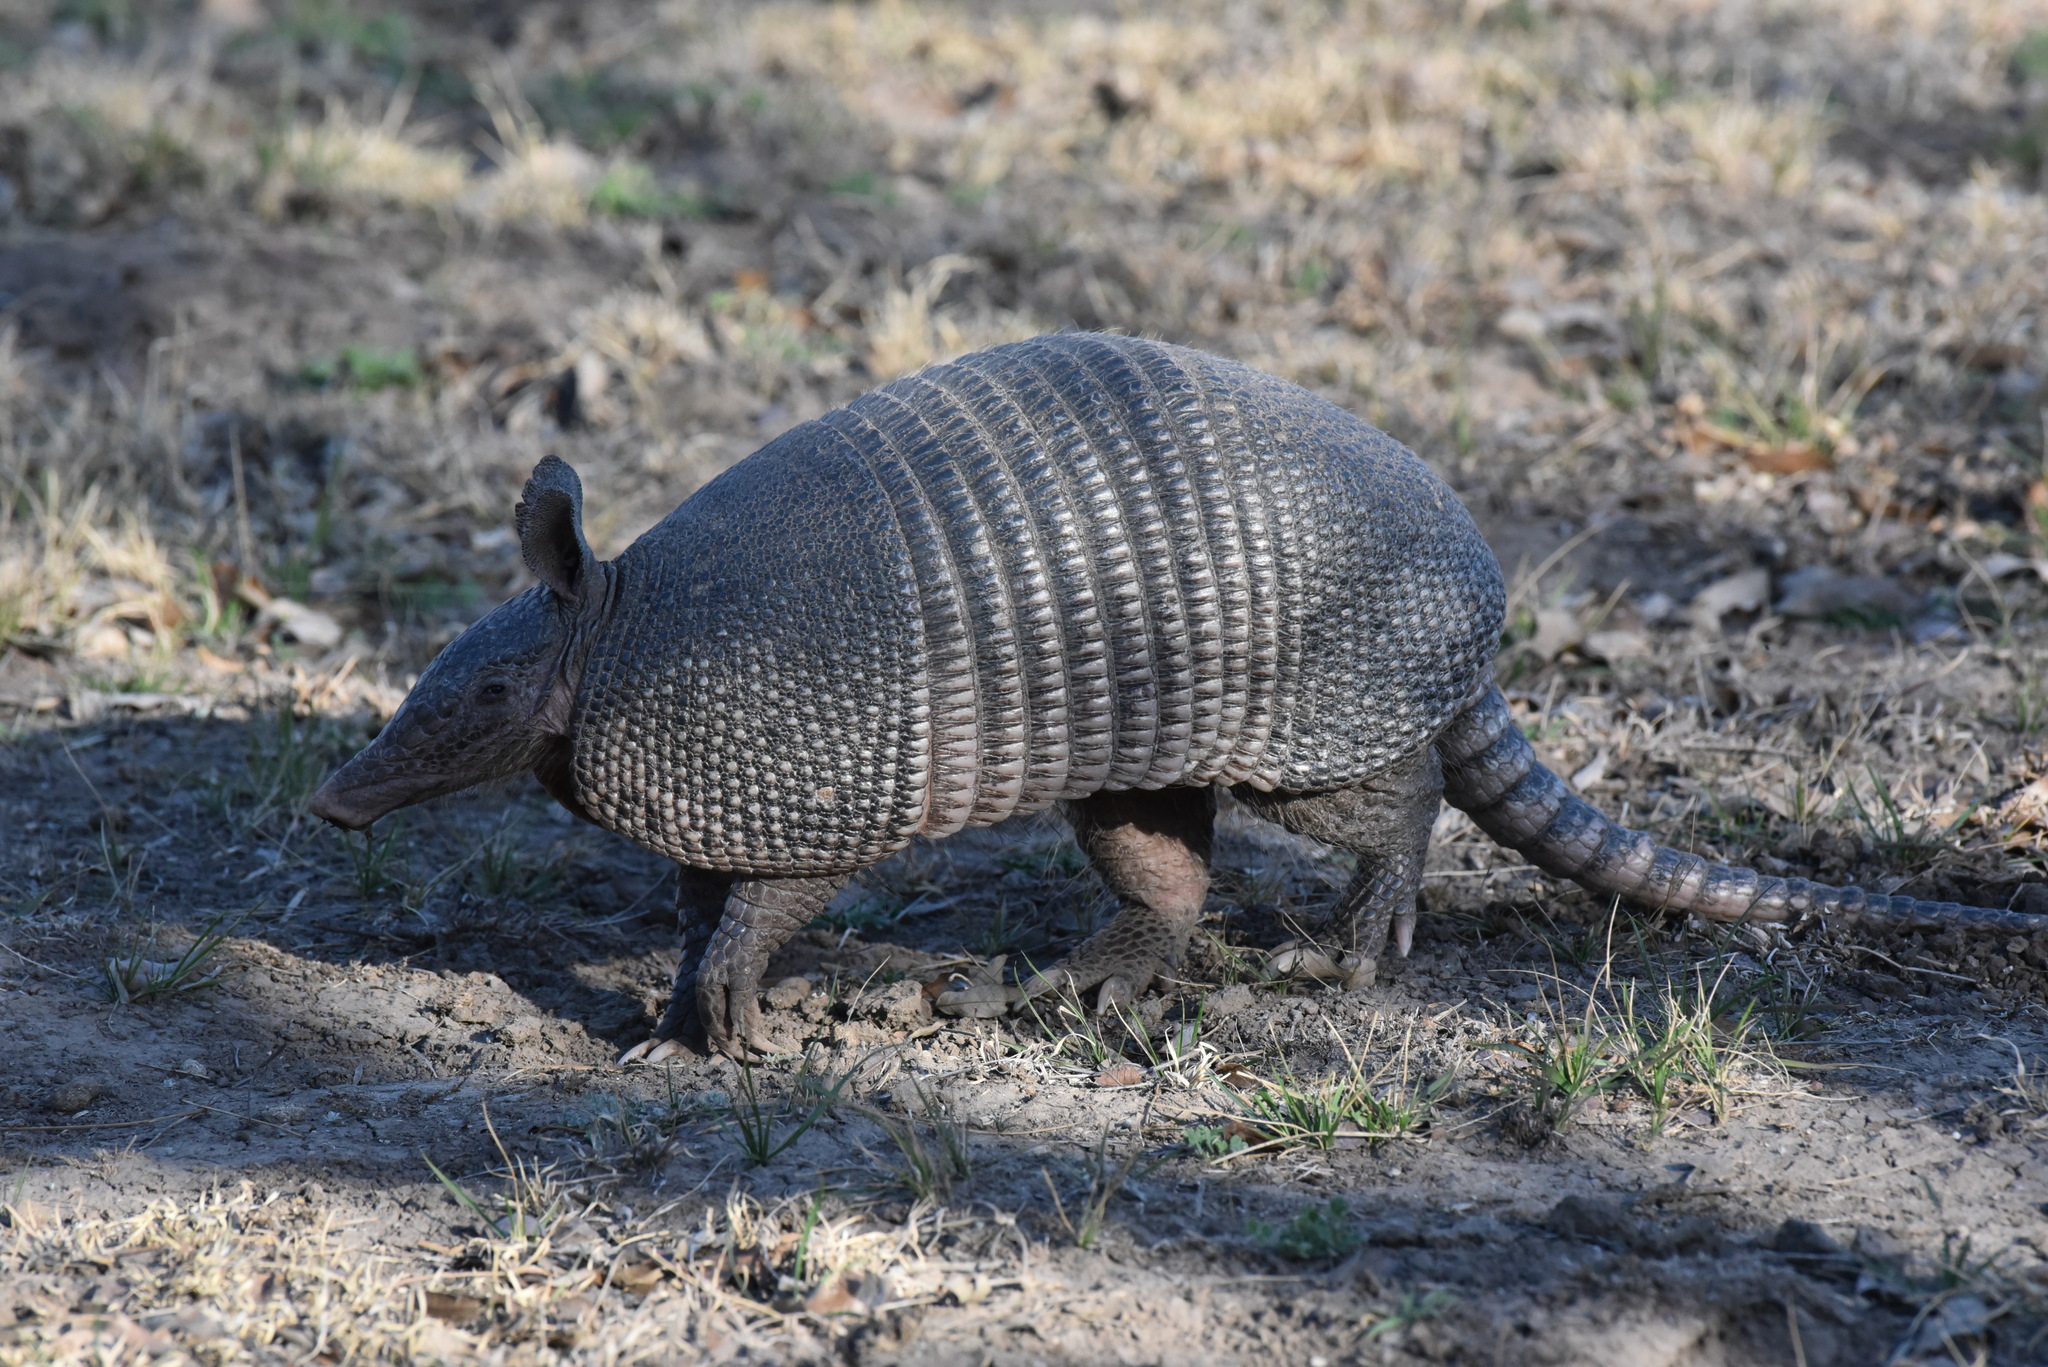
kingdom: Animalia
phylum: Chordata
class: Mammalia
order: Cingulata
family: Dasypodidae
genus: Dasypus
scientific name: Dasypus novemcinctus
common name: Nine-banded armadillo
